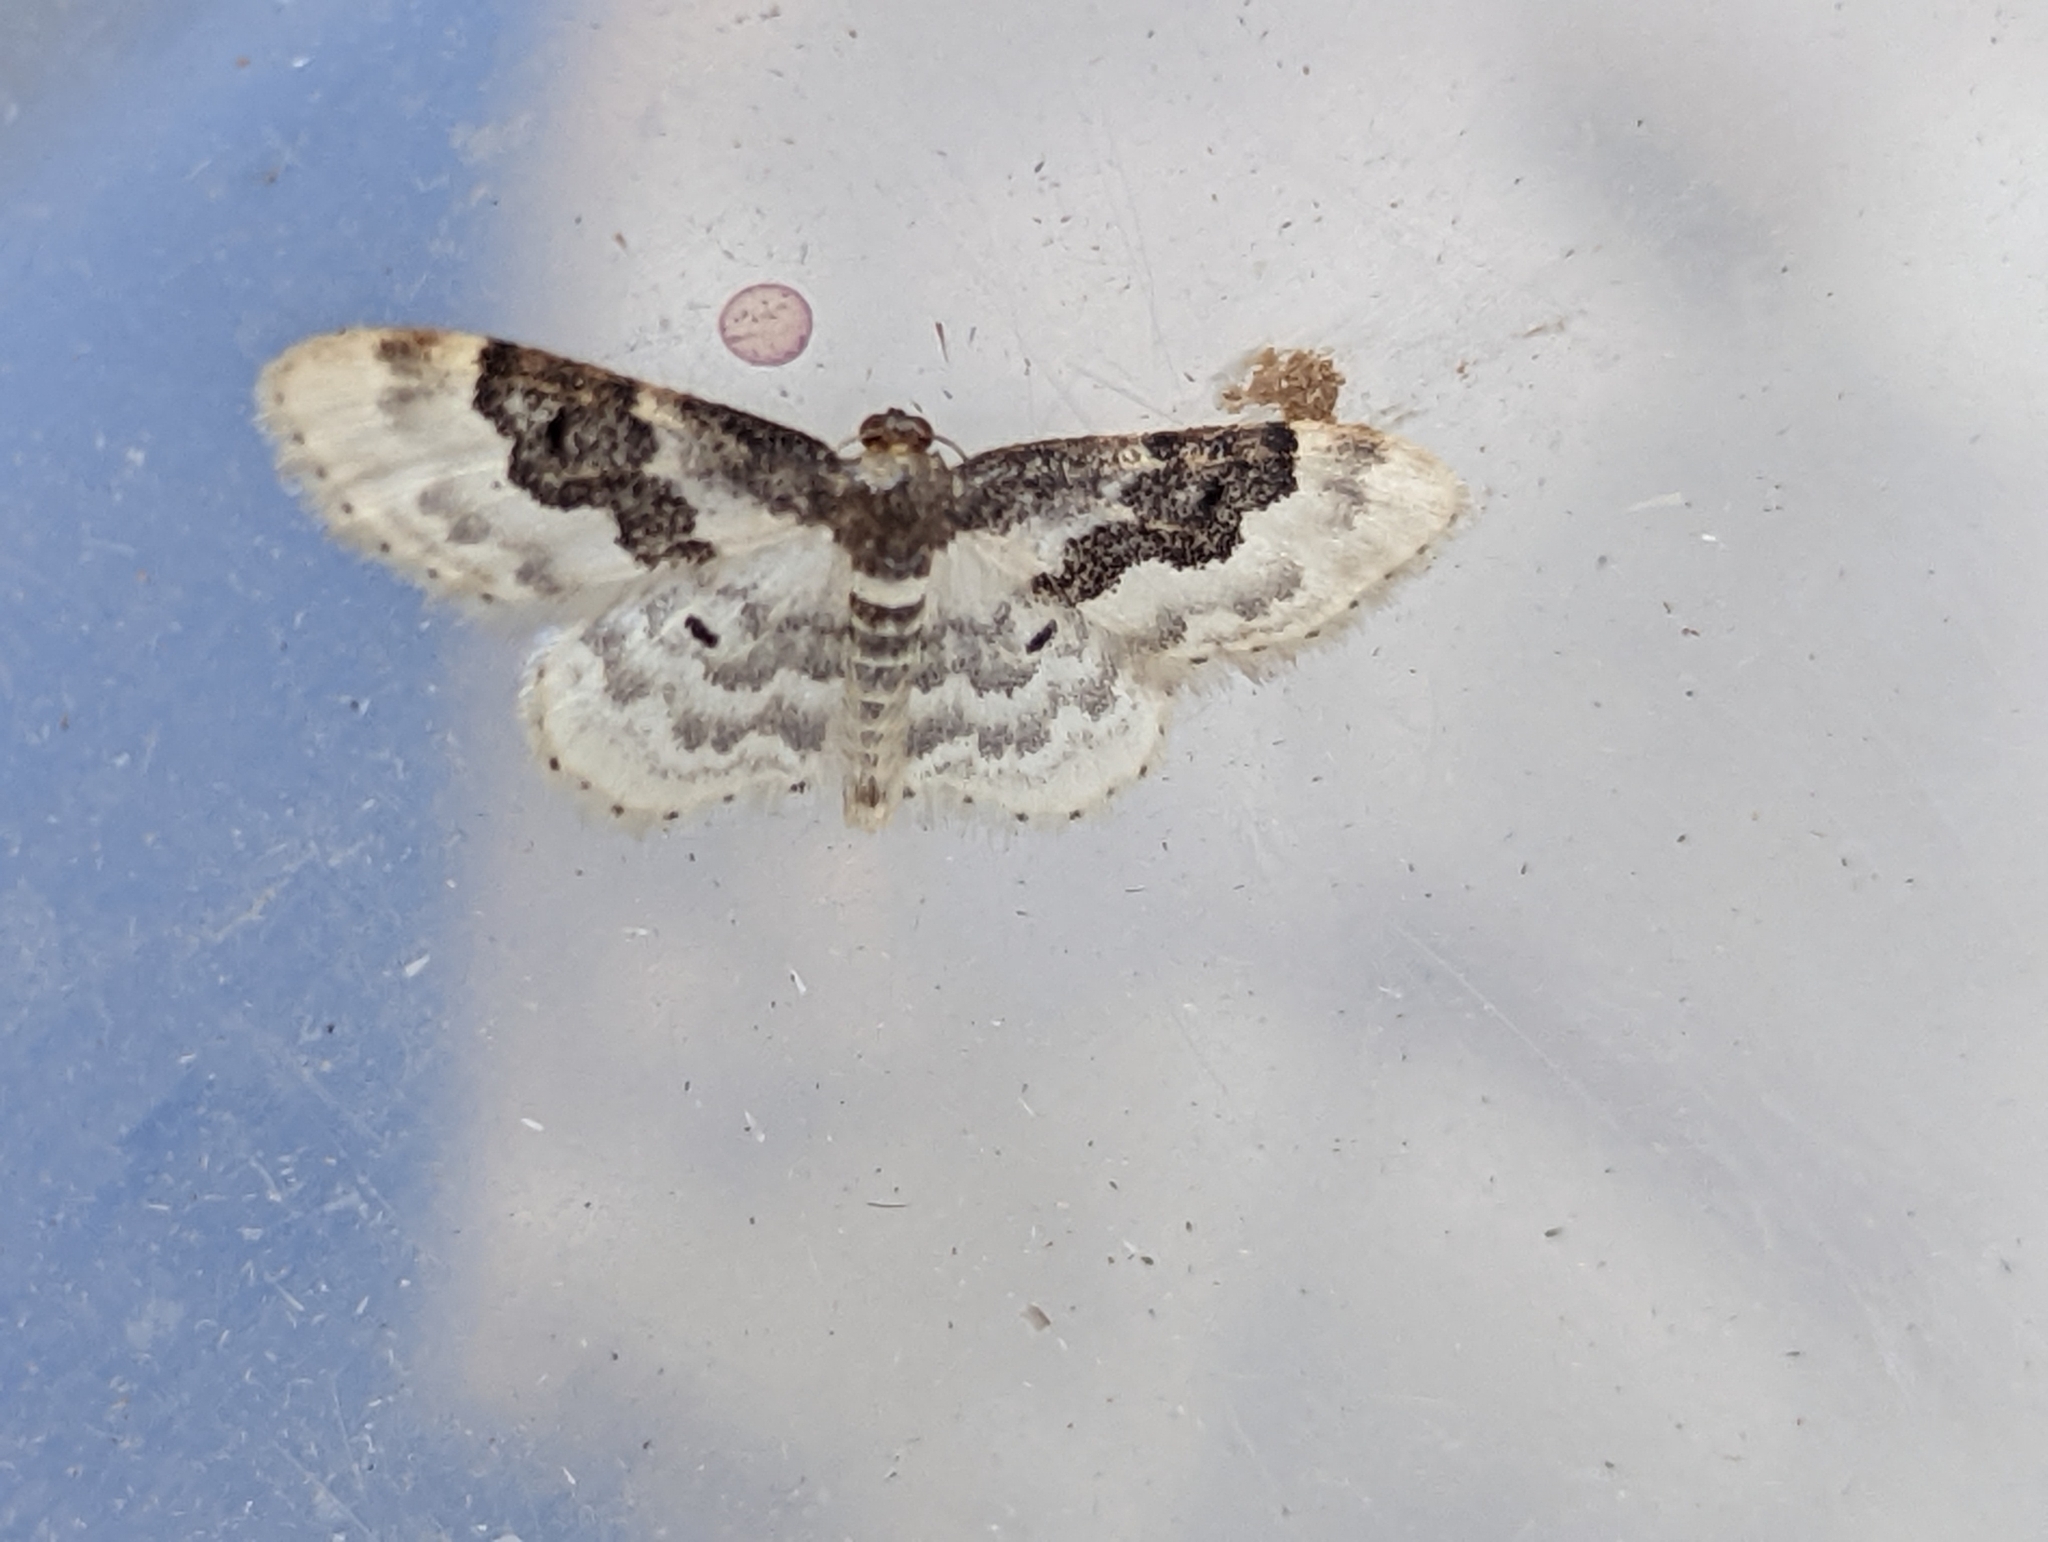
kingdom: Animalia
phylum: Arthropoda
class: Insecta
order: Lepidoptera
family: Geometridae
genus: Idaea
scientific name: Idaea rusticata
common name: Least carpet
